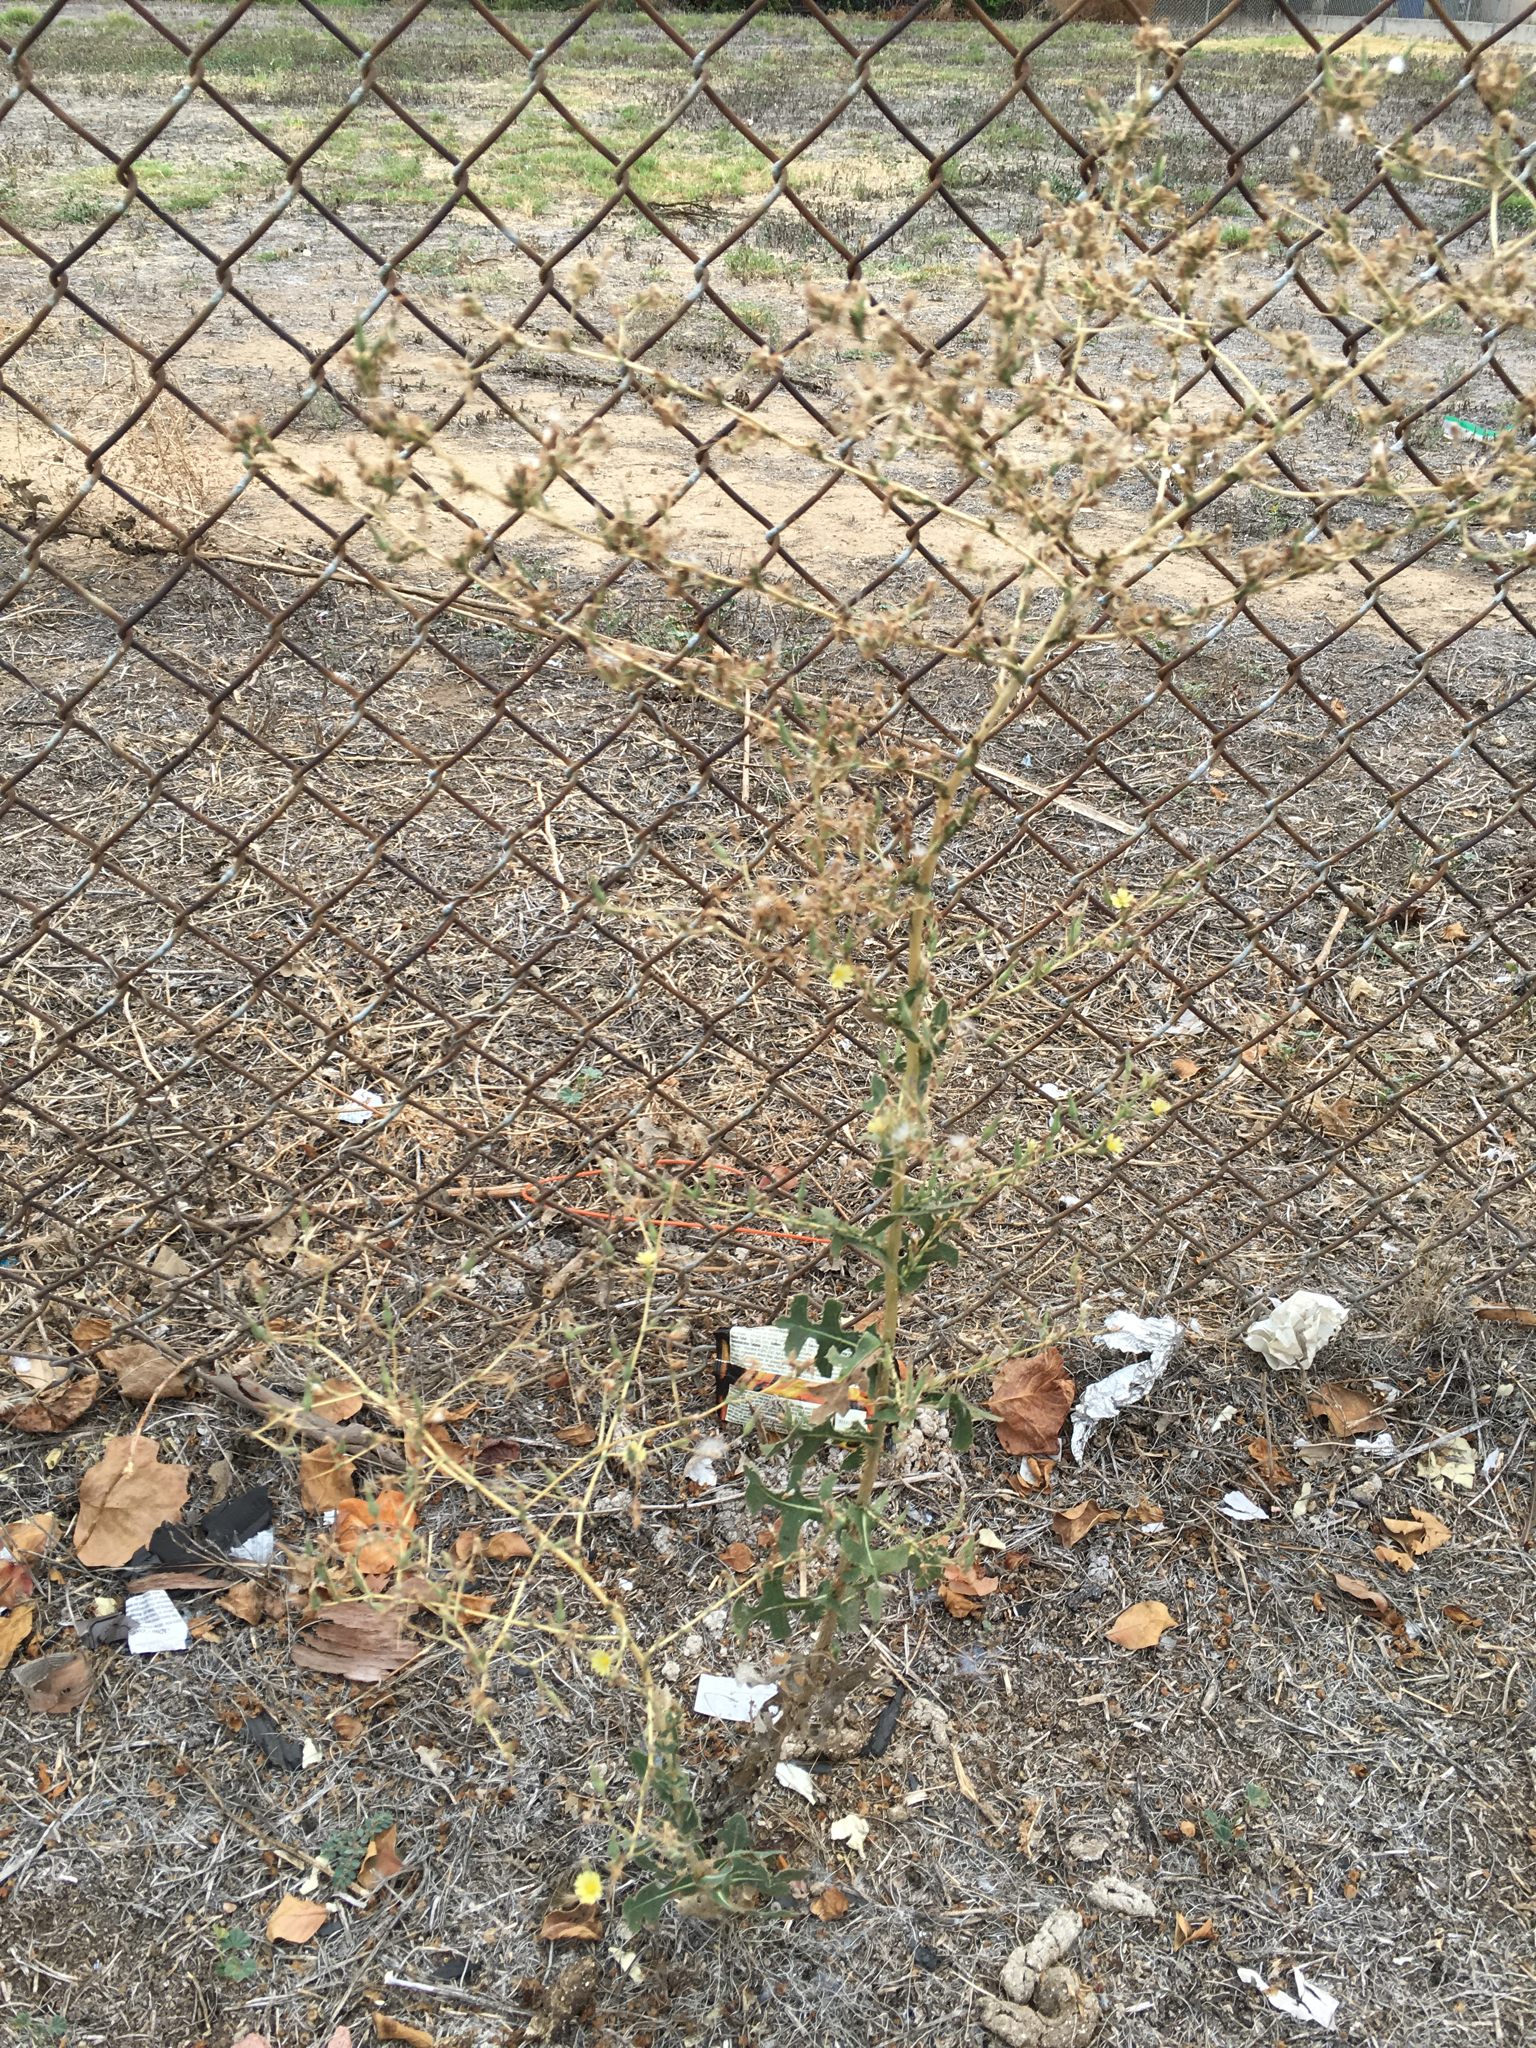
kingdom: Plantae
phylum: Tracheophyta
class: Magnoliopsida
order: Asterales
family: Asteraceae
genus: Lactuca
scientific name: Lactuca serriola
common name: Prickly lettuce
